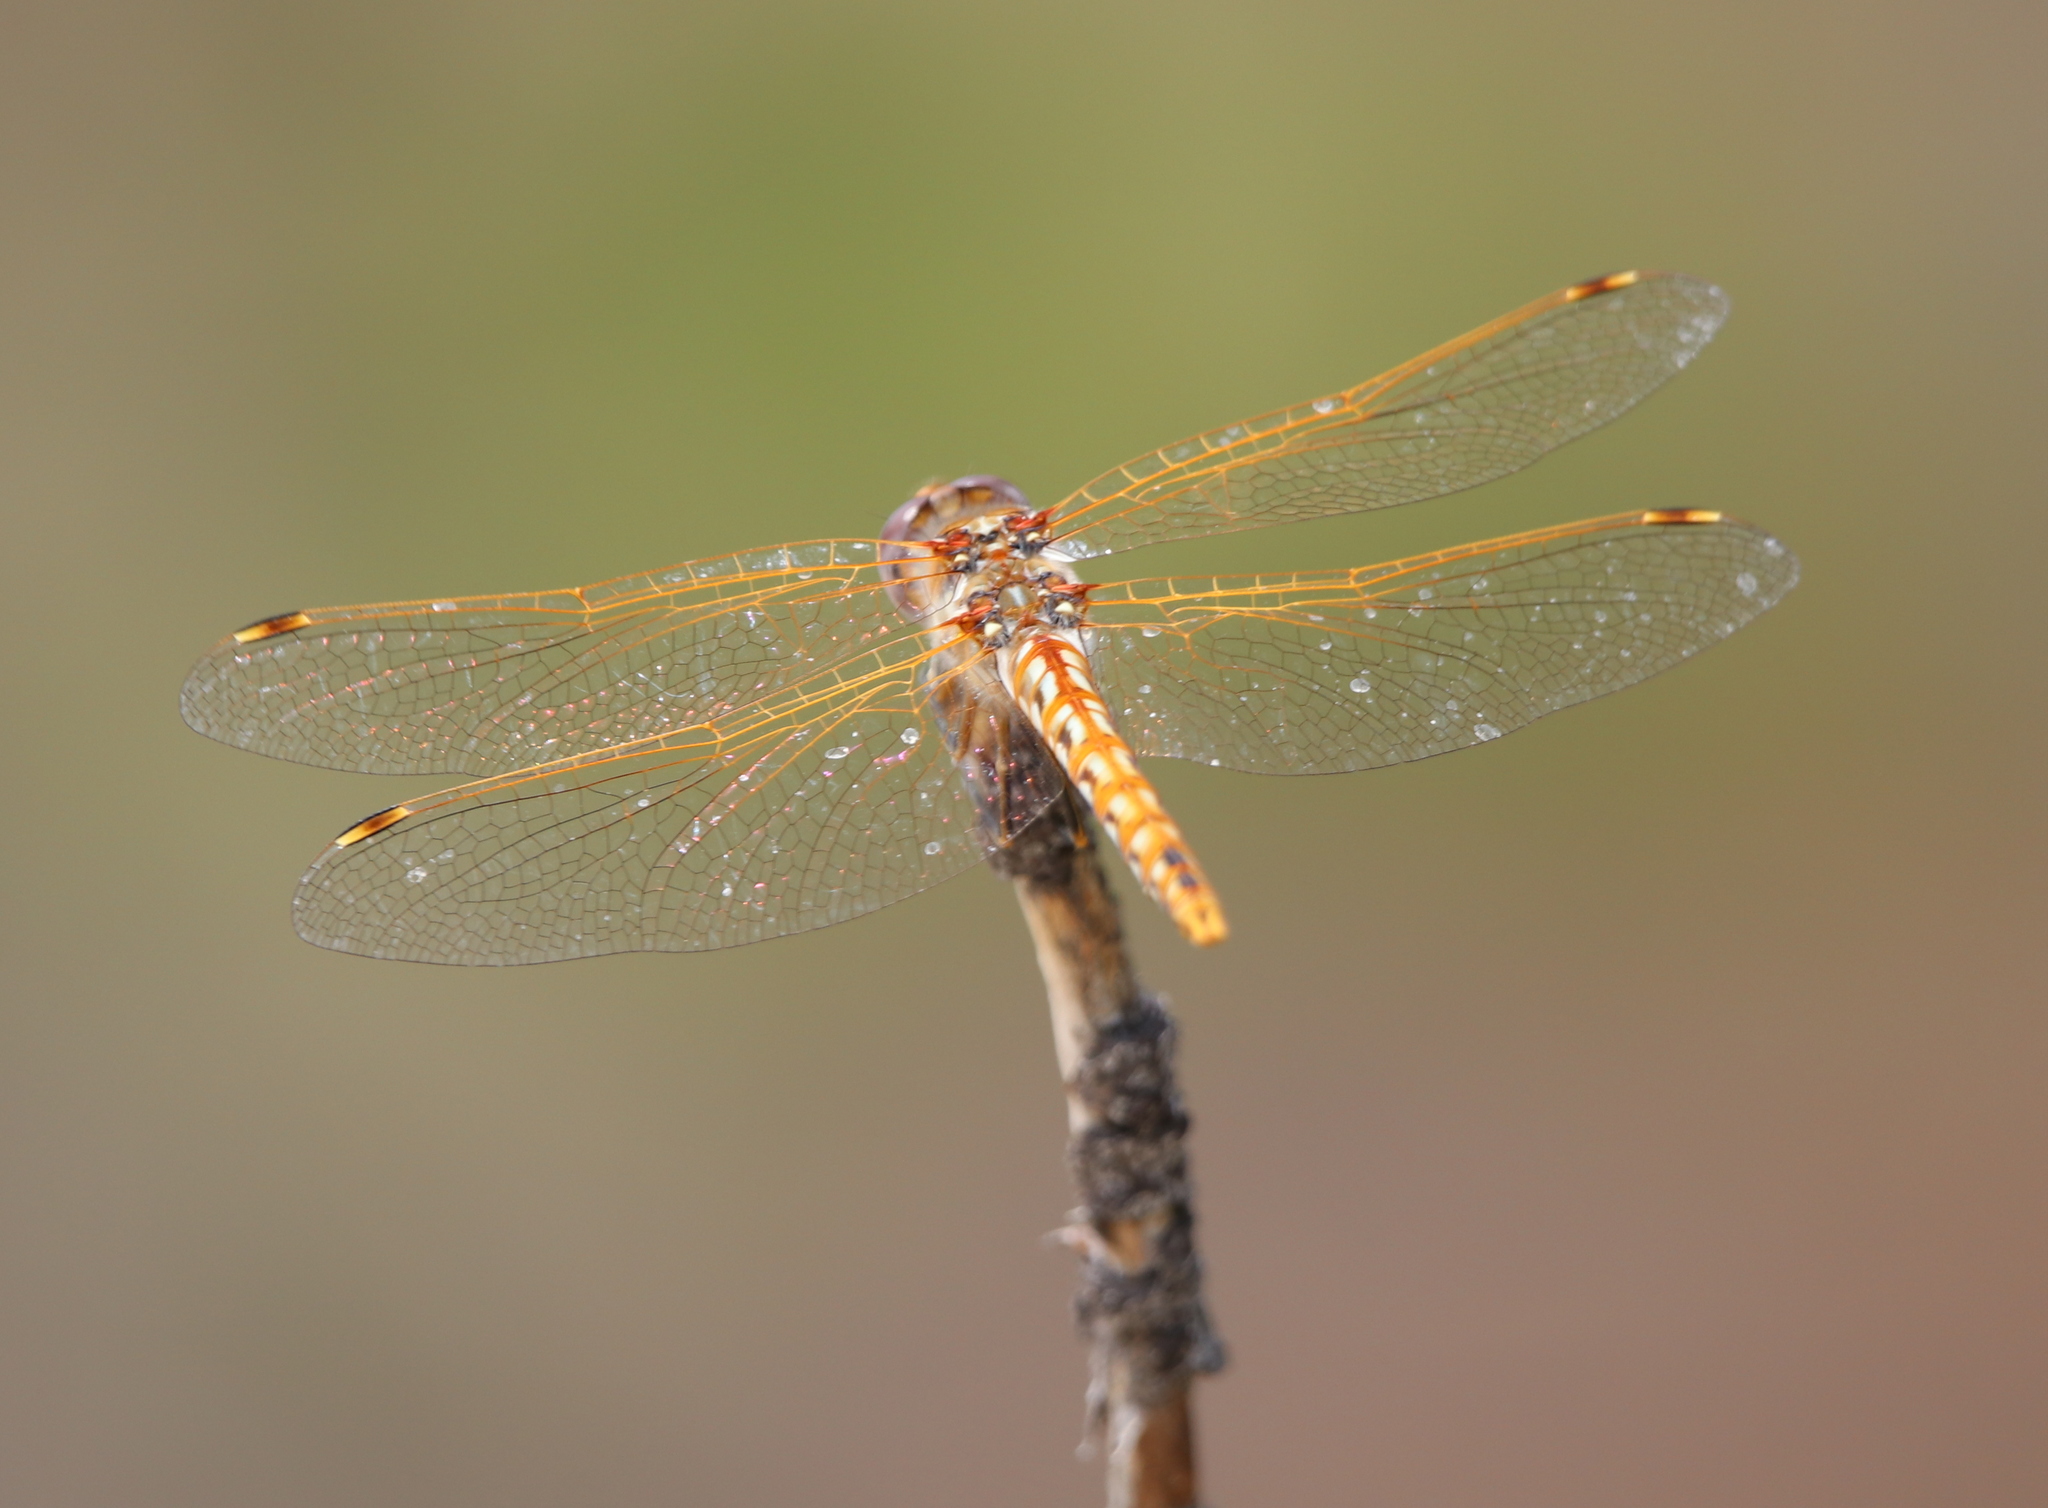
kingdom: Animalia
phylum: Arthropoda
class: Insecta
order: Odonata
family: Libellulidae
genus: Sympetrum
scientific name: Sympetrum corruptum
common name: Variegated meadowhawk
